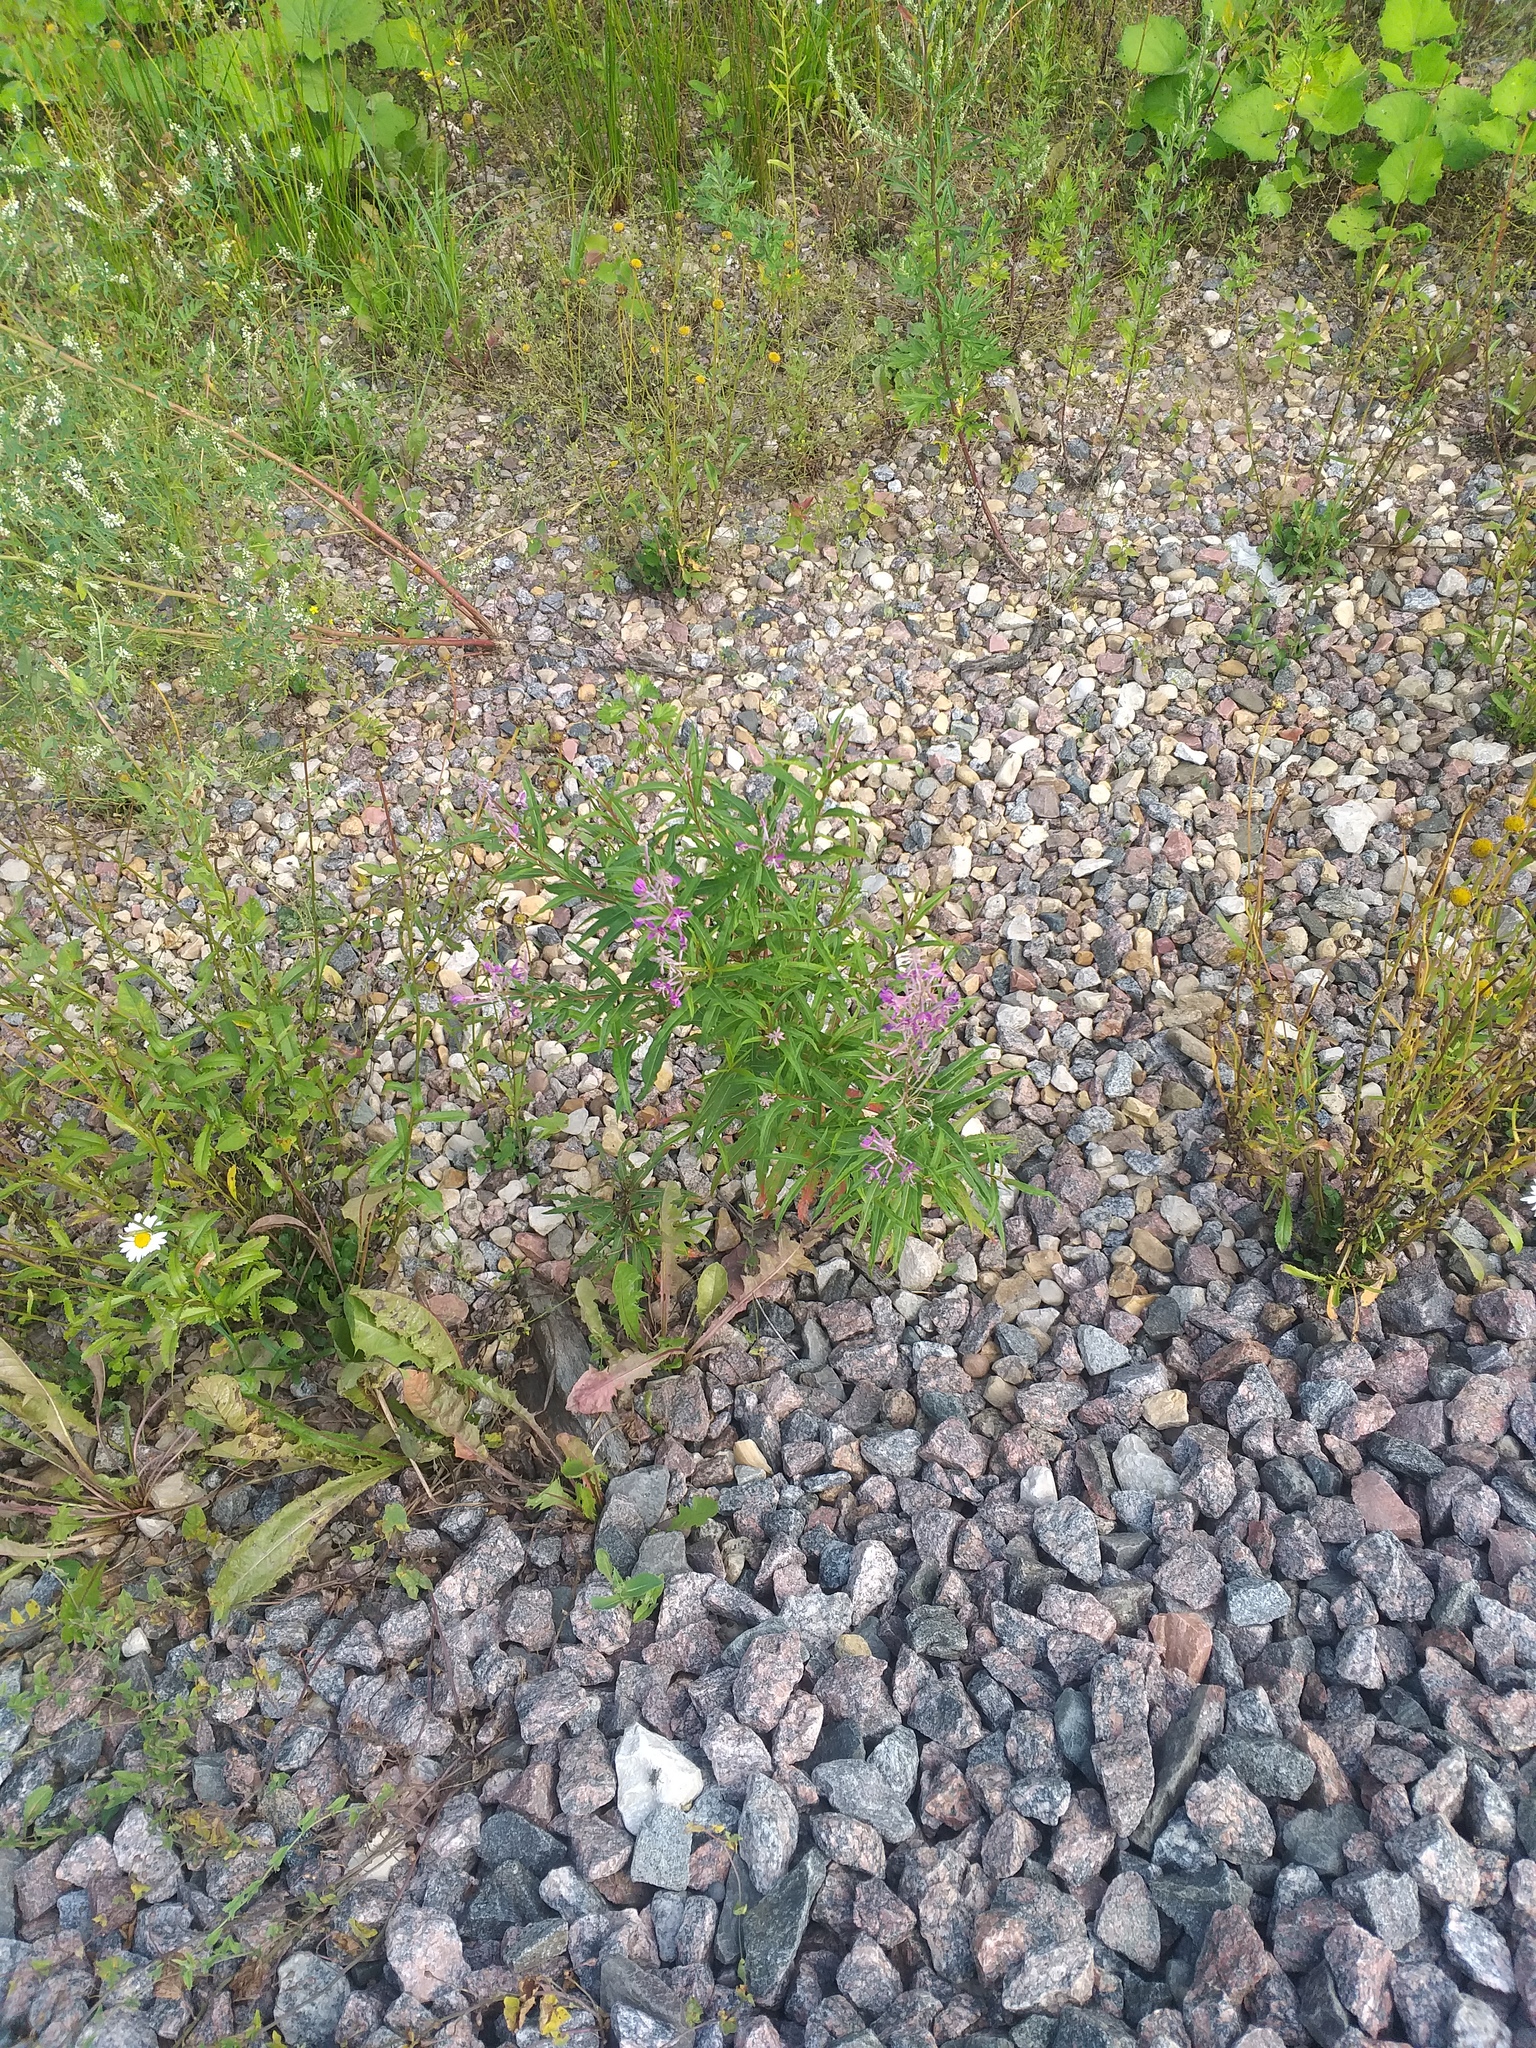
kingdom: Plantae
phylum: Tracheophyta
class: Magnoliopsida
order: Myrtales
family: Onagraceae
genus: Chamaenerion
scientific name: Chamaenerion angustifolium
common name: Fireweed
